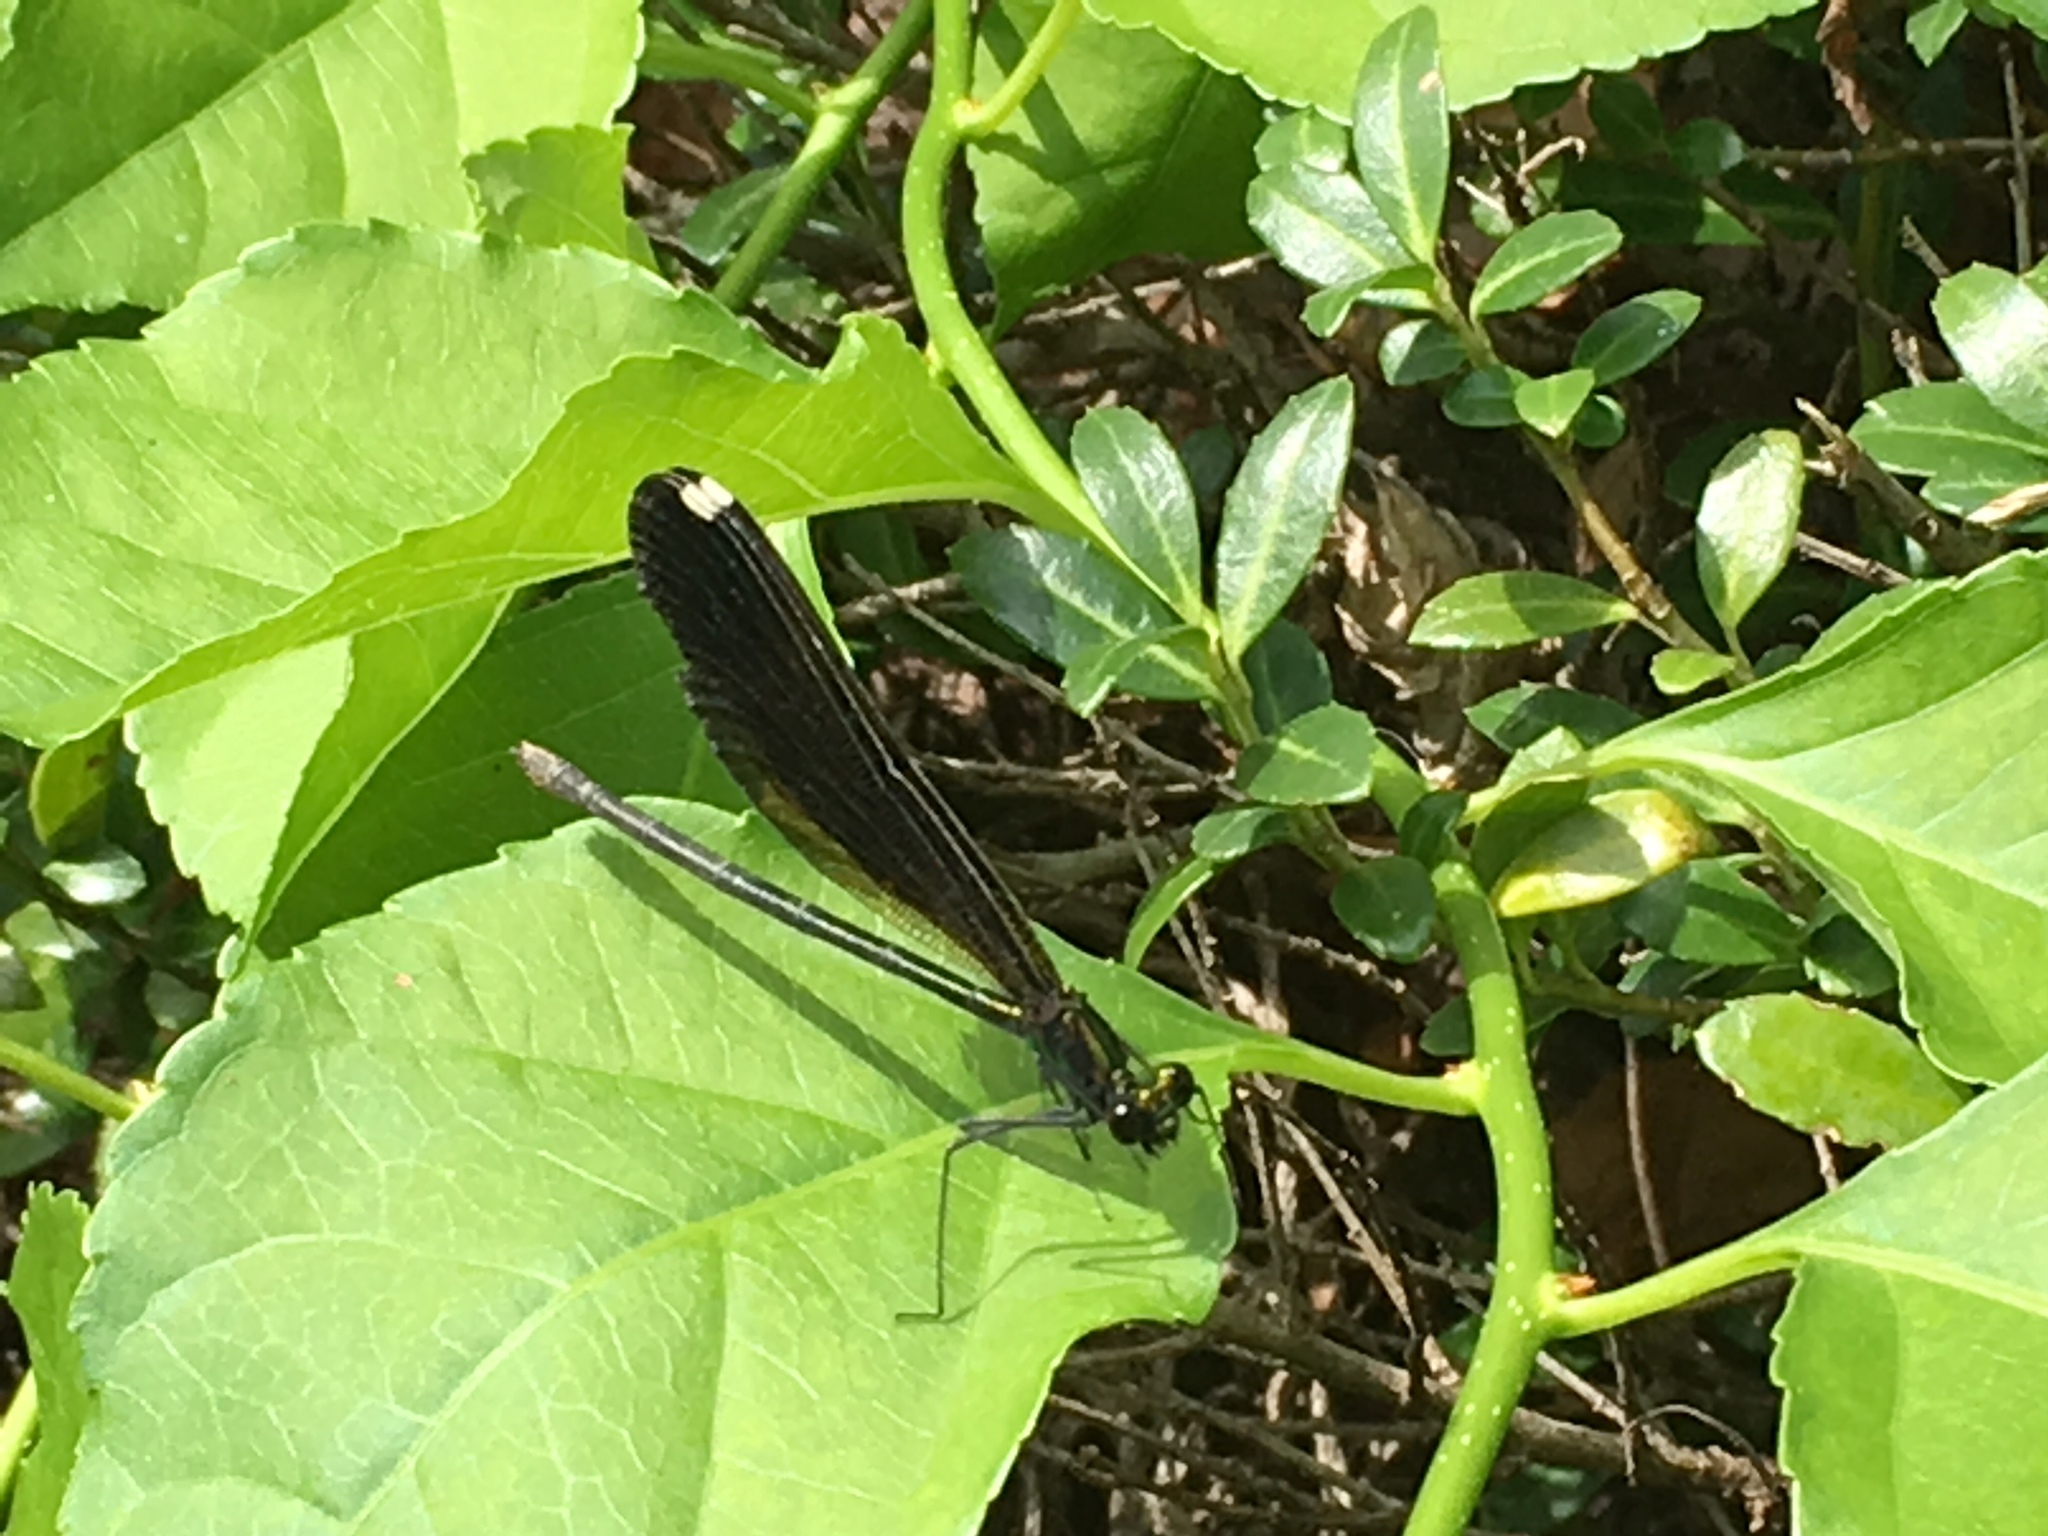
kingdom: Animalia
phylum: Arthropoda
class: Insecta
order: Odonata
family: Calopterygidae
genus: Calopteryx
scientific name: Calopteryx maculata
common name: Ebony jewelwing
